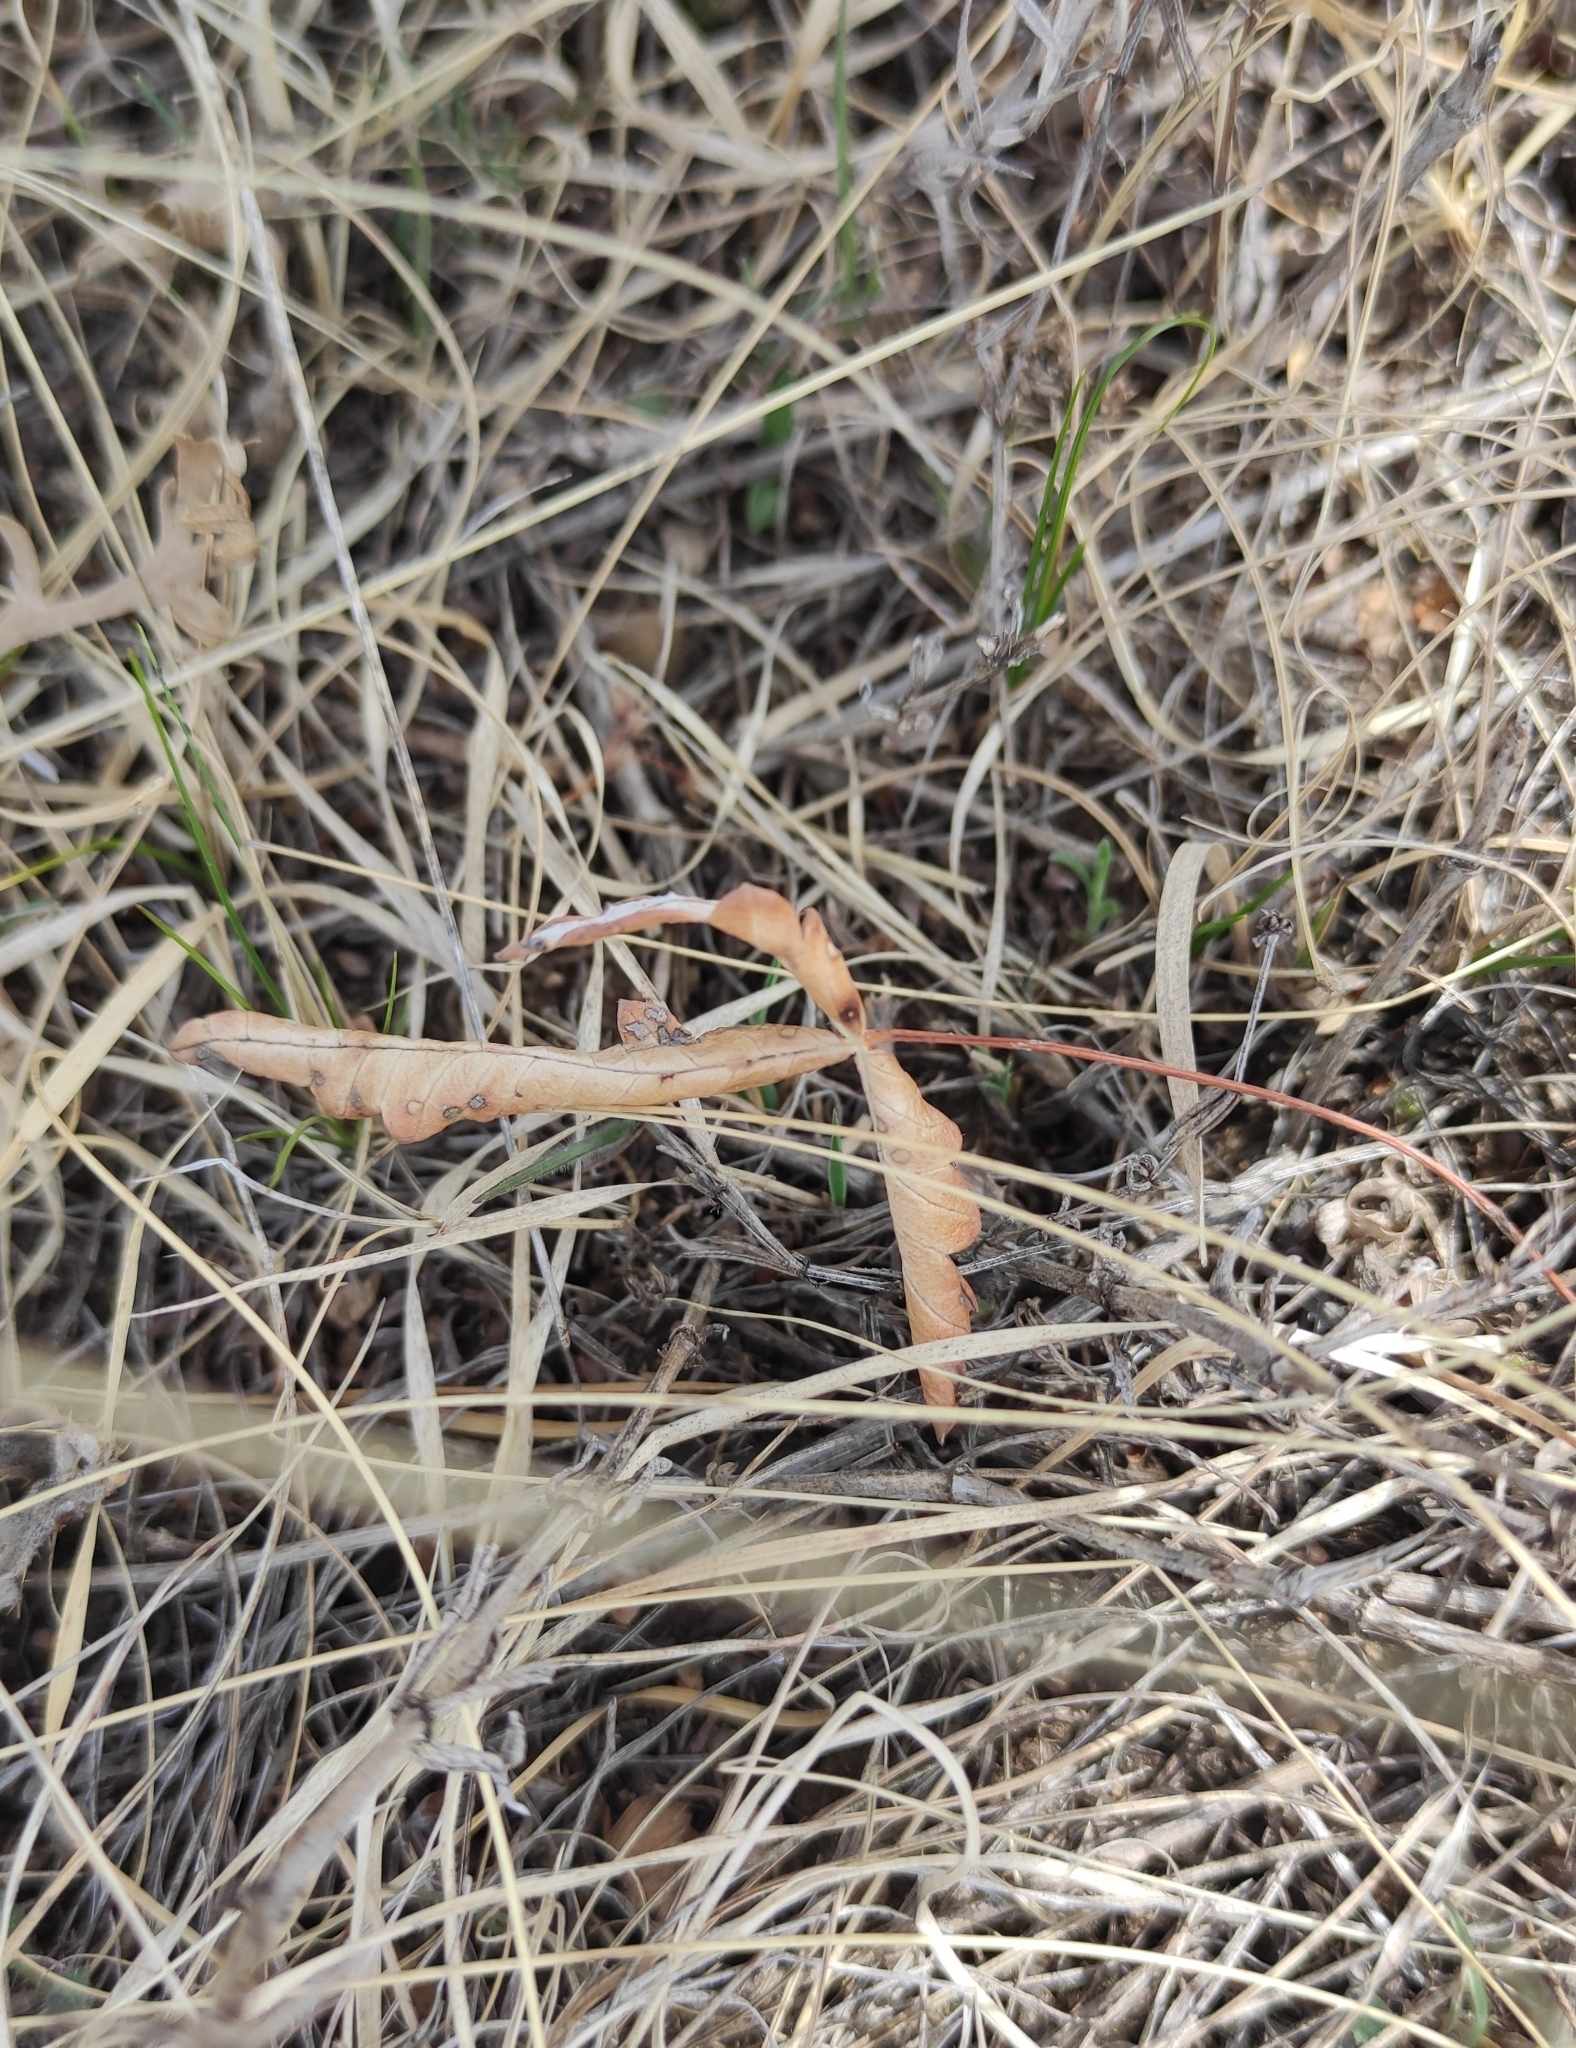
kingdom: Plantae
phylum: Tracheophyta
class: Magnoliopsida
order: Rosales
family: Rosaceae
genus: Potentilla
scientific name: Potentilla
